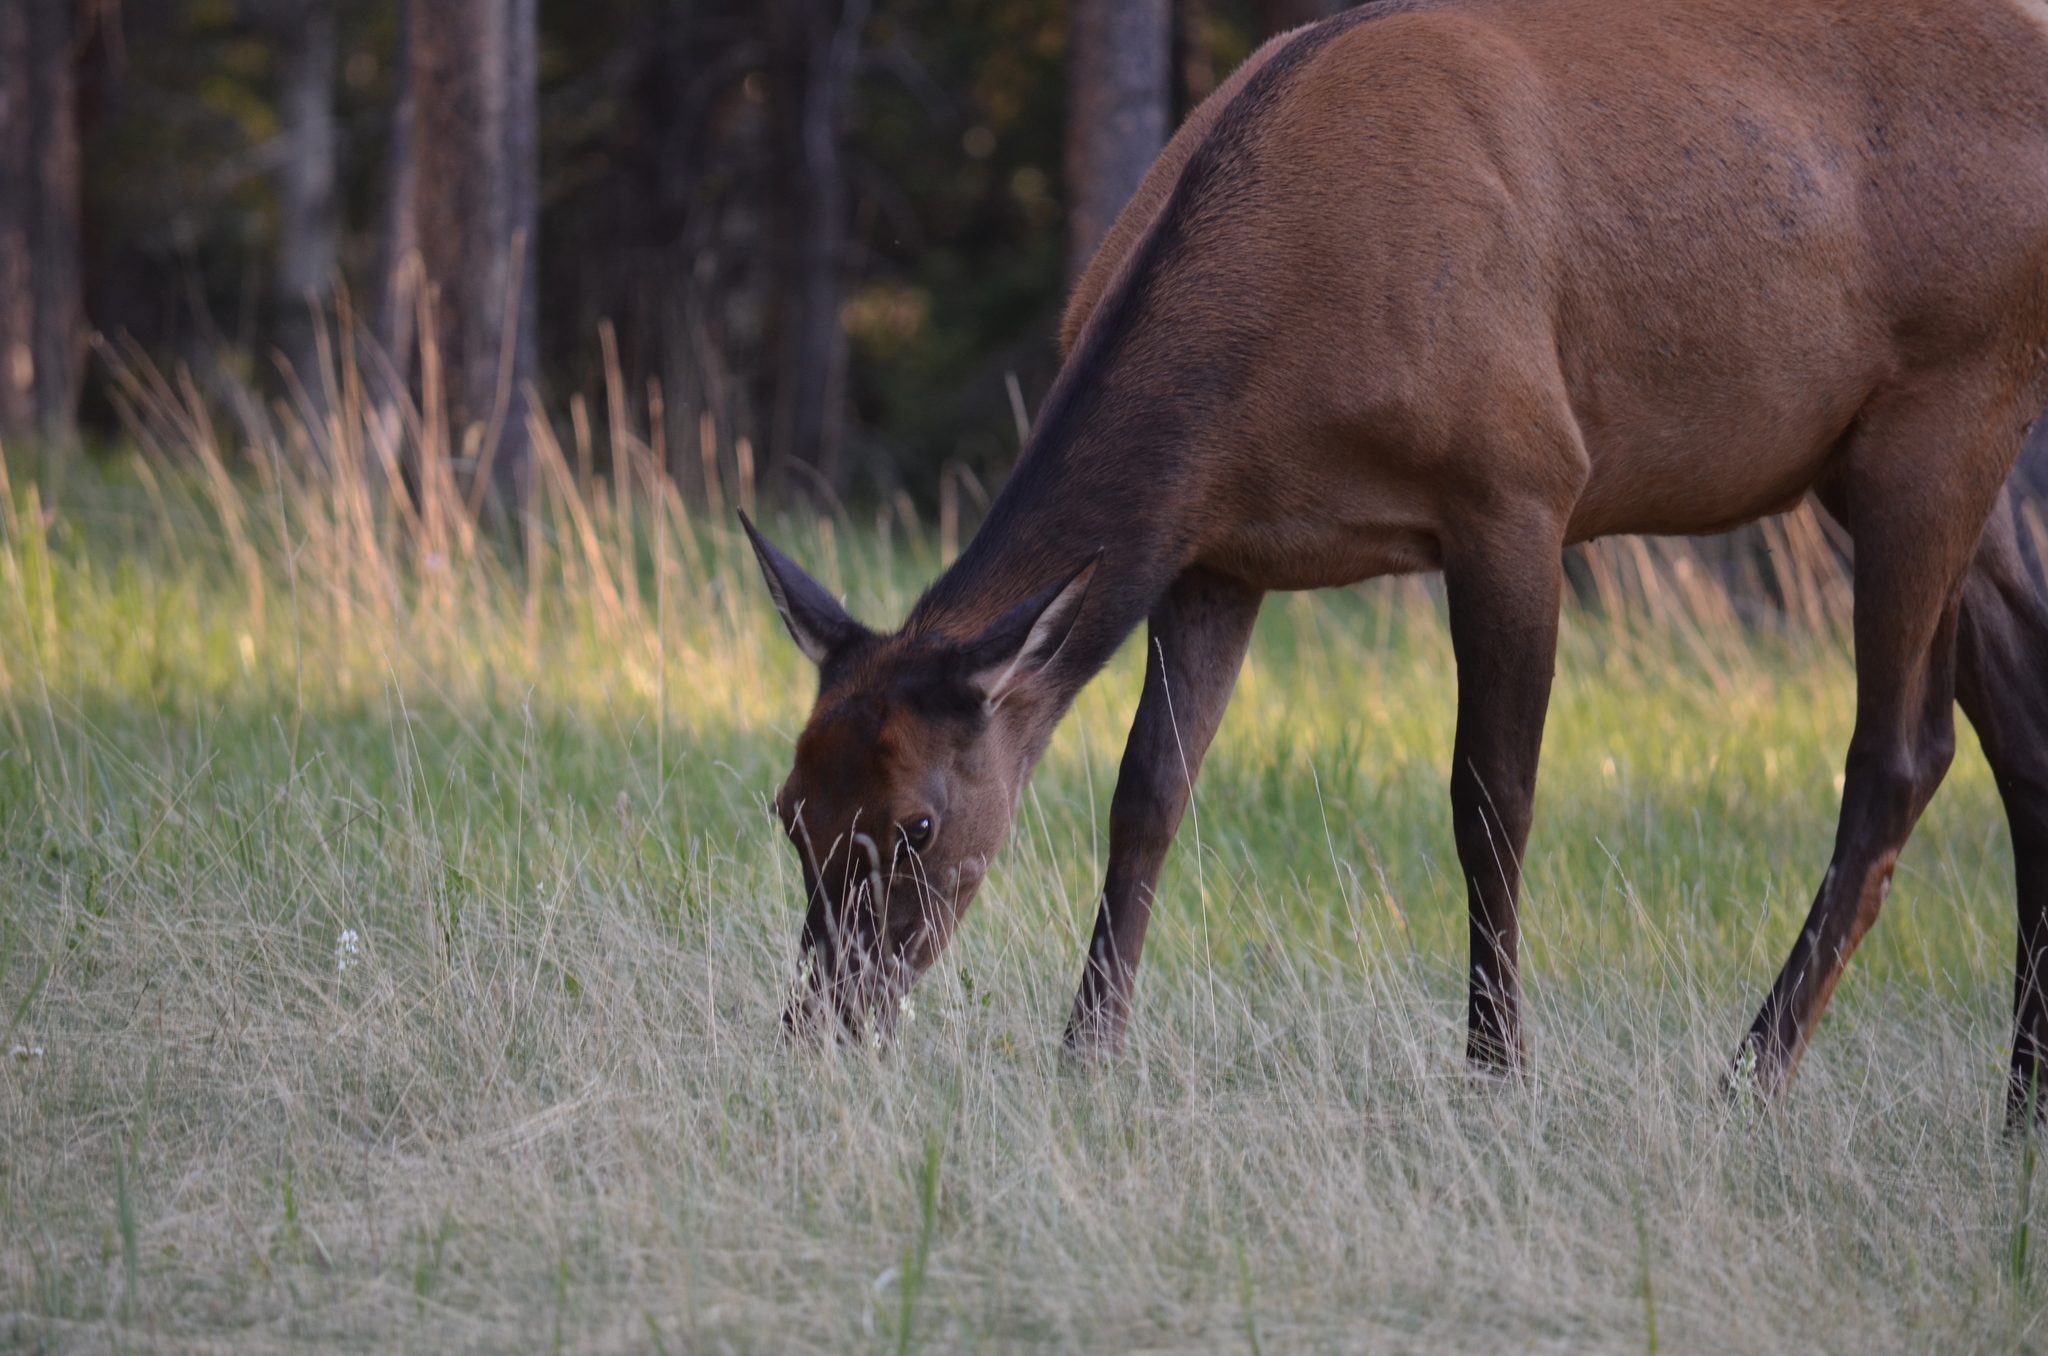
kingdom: Animalia
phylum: Chordata
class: Mammalia
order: Artiodactyla
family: Cervidae
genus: Cervus
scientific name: Cervus elaphus
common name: Red deer
